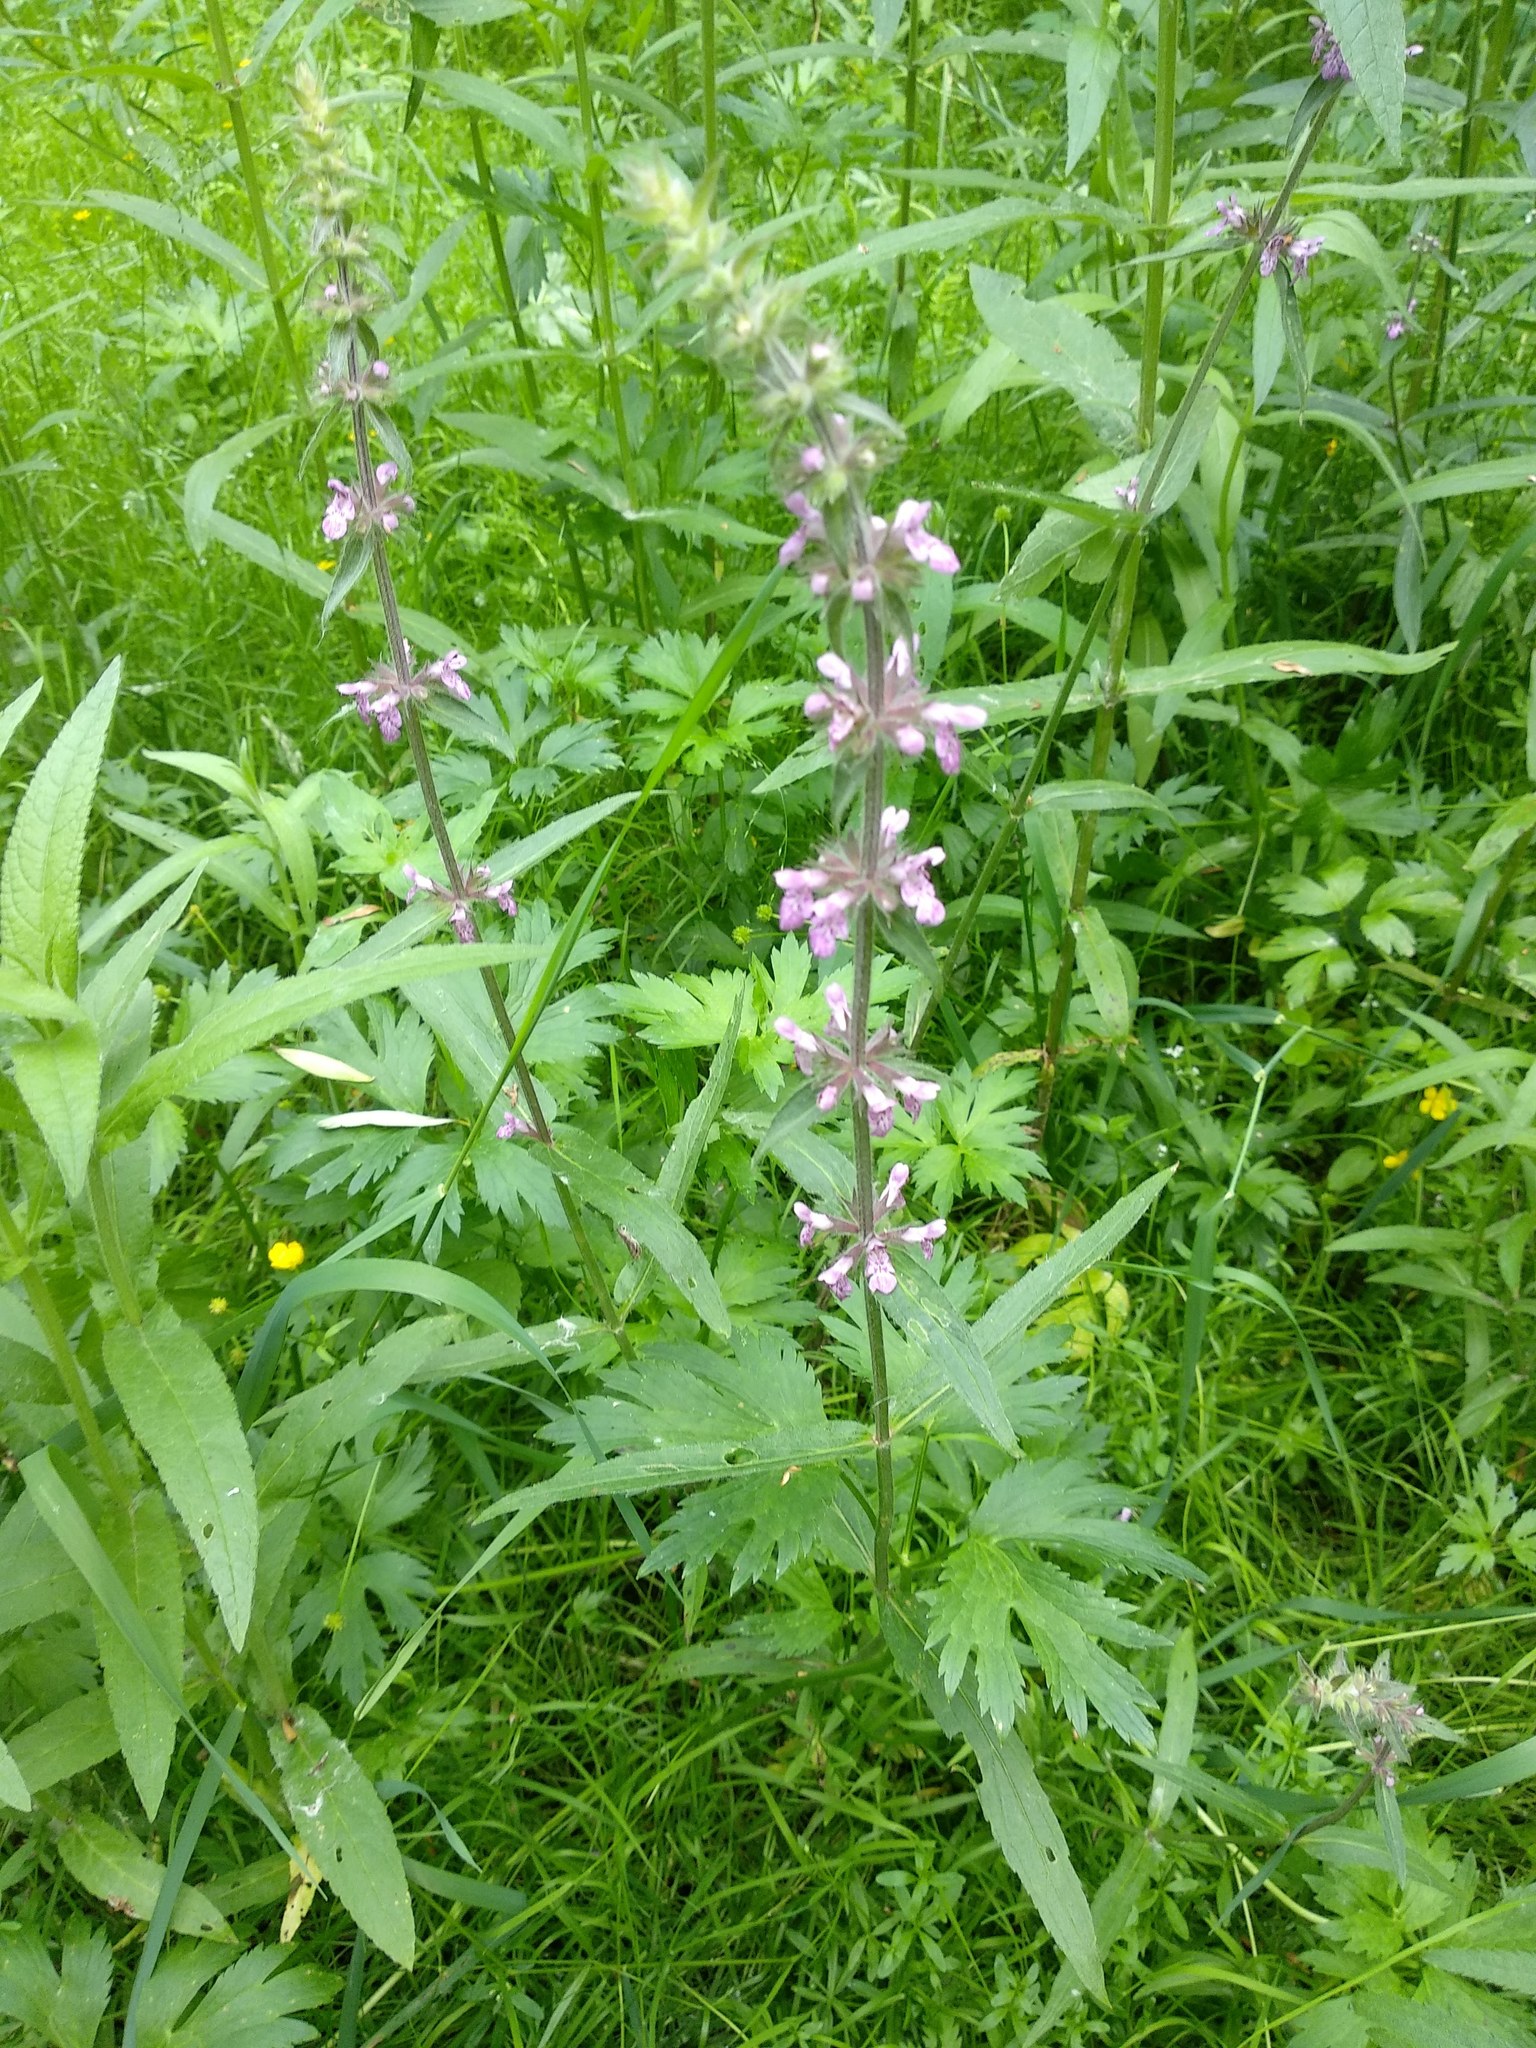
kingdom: Plantae
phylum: Tracheophyta
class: Magnoliopsida
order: Lamiales
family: Lamiaceae
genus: Stachys
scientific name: Stachys palustris
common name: Marsh woundwort
